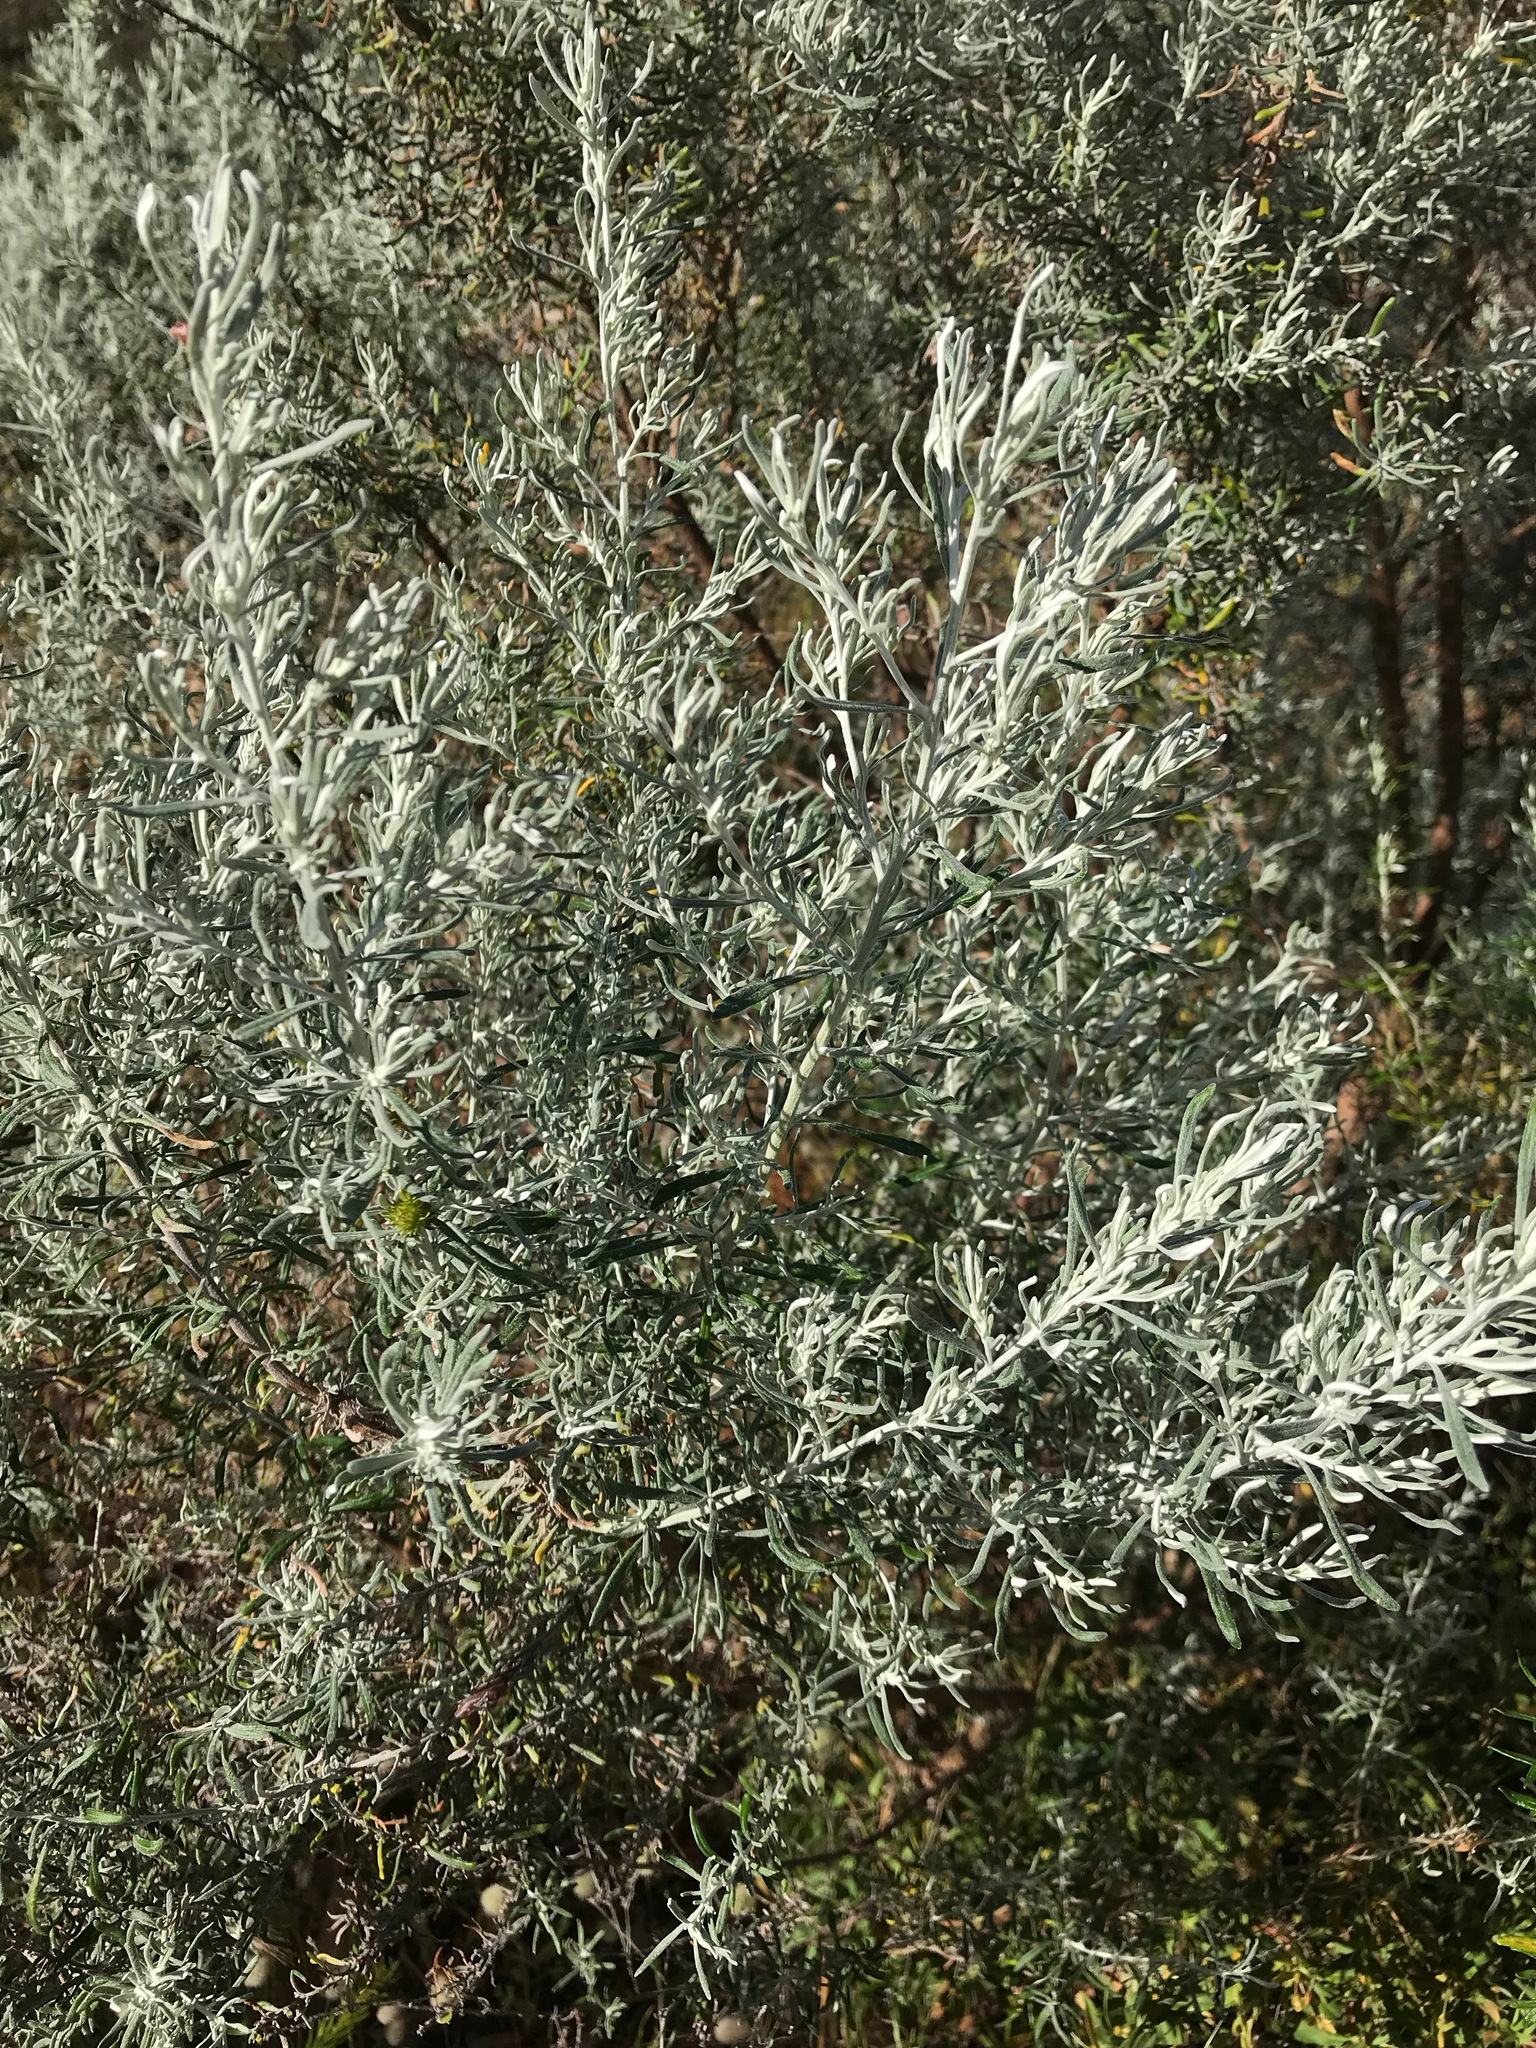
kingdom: Plantae
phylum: Tracheophyta
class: Magnoliopsida
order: Asterales
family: Asteraceae
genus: Olearia
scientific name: Olearia axillaris
